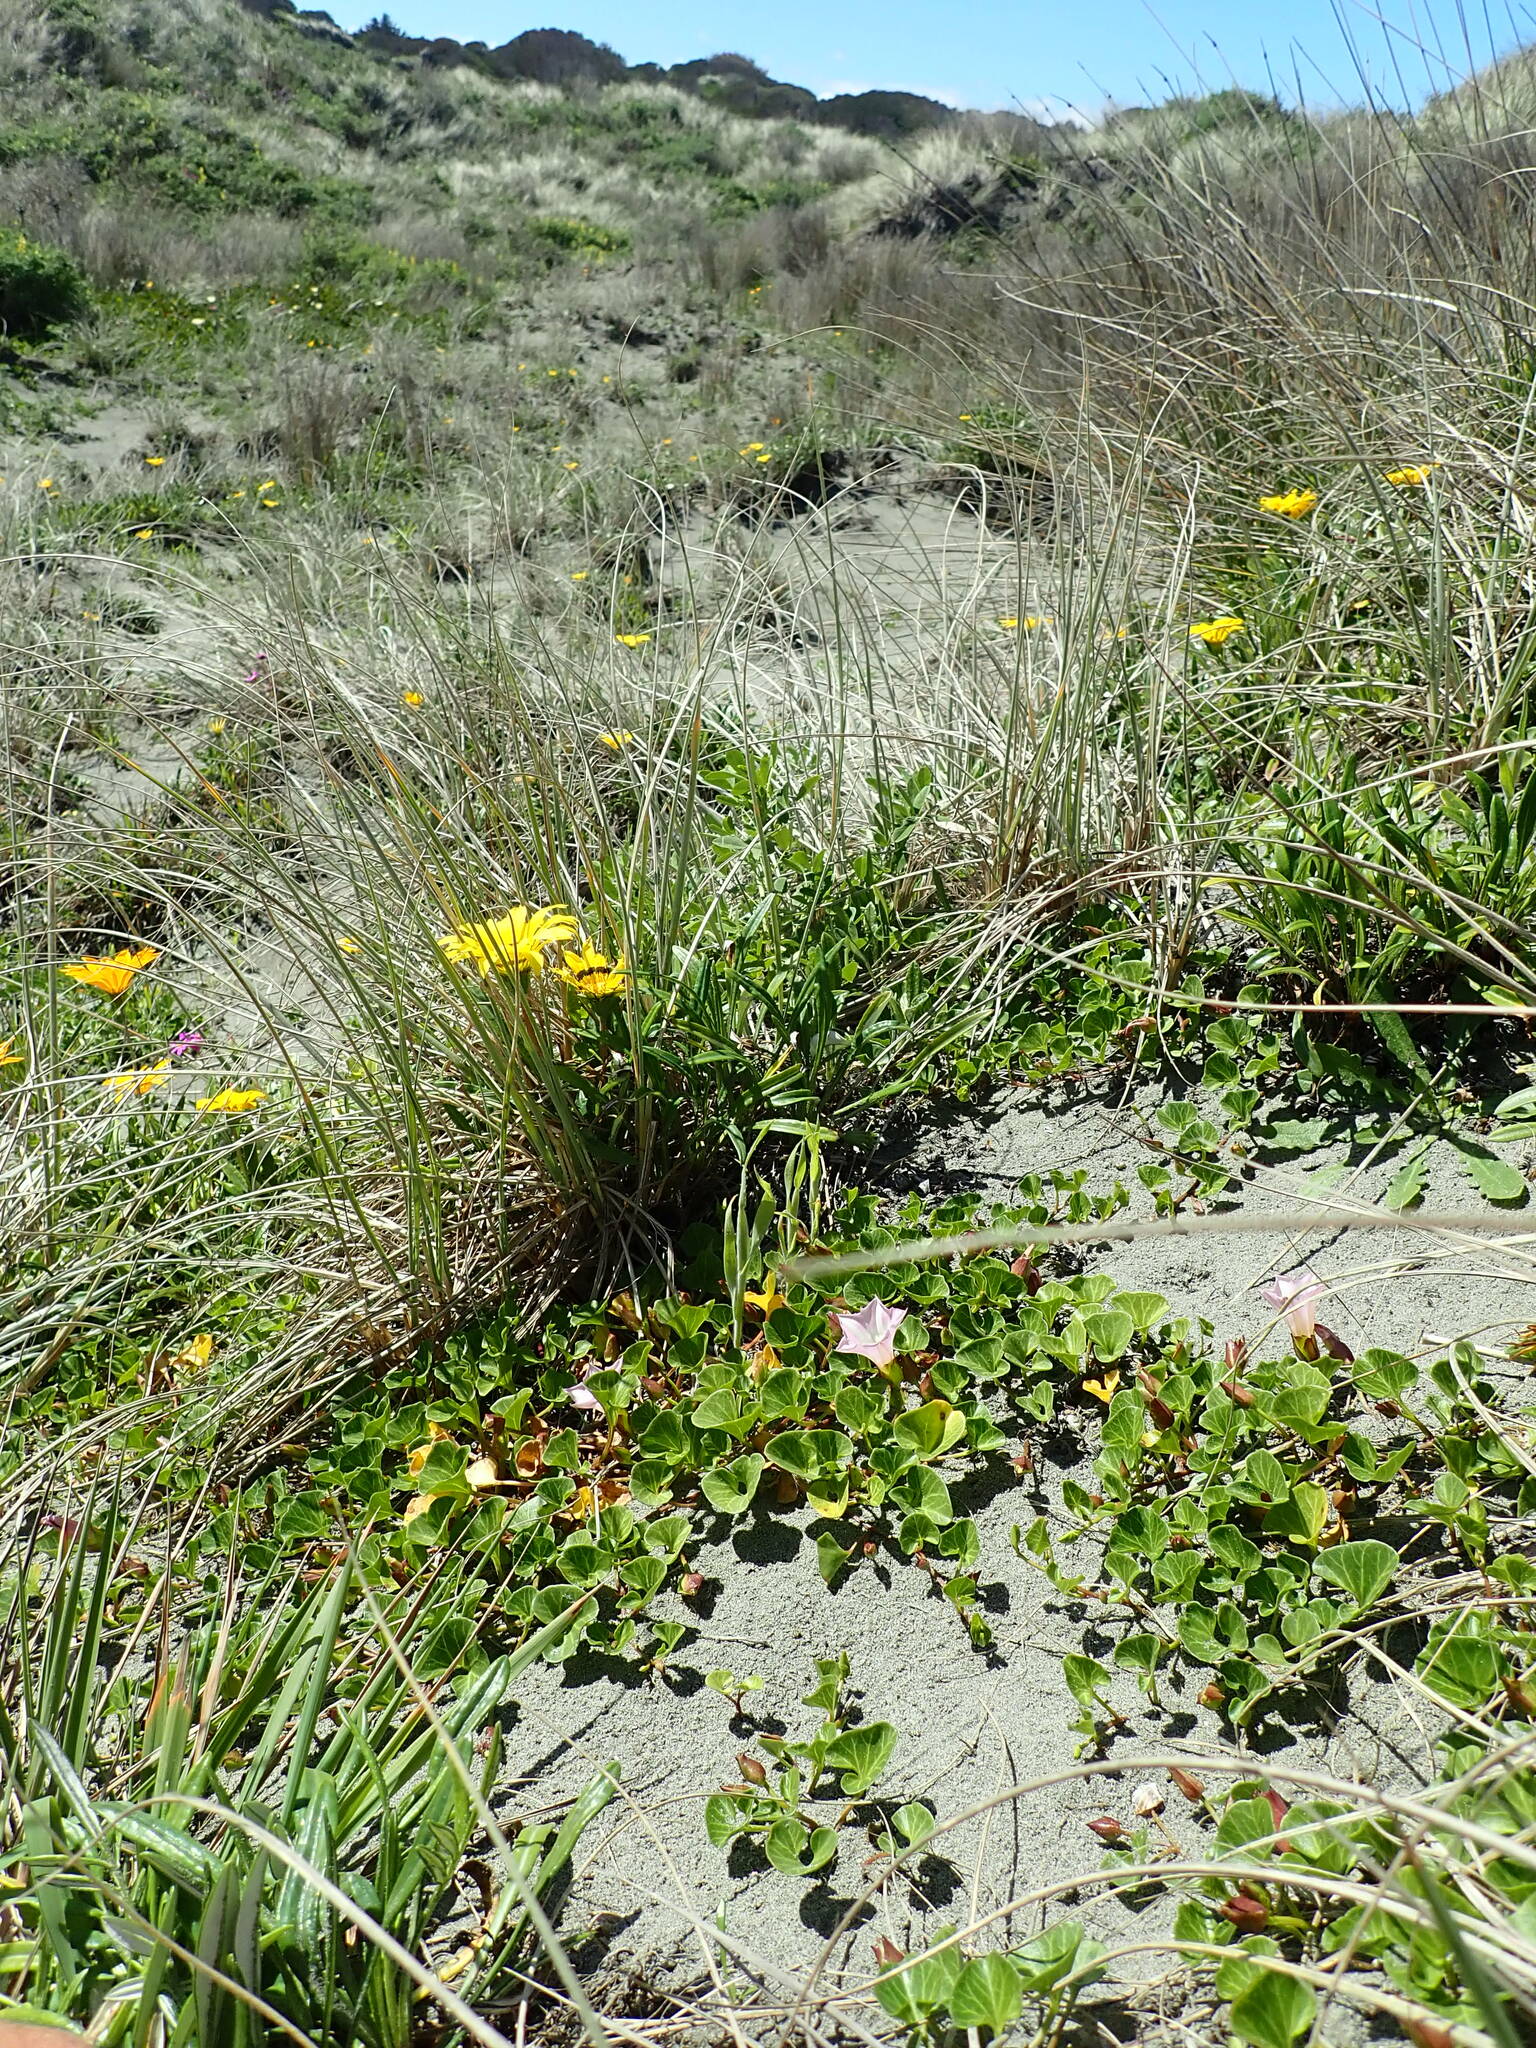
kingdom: Plantae
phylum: Tracheophyta
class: Magnoliopsida
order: Solanales
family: Convolvulaceae
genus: Calystegia
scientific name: Calystegia soldanella
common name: Sea bindweed
